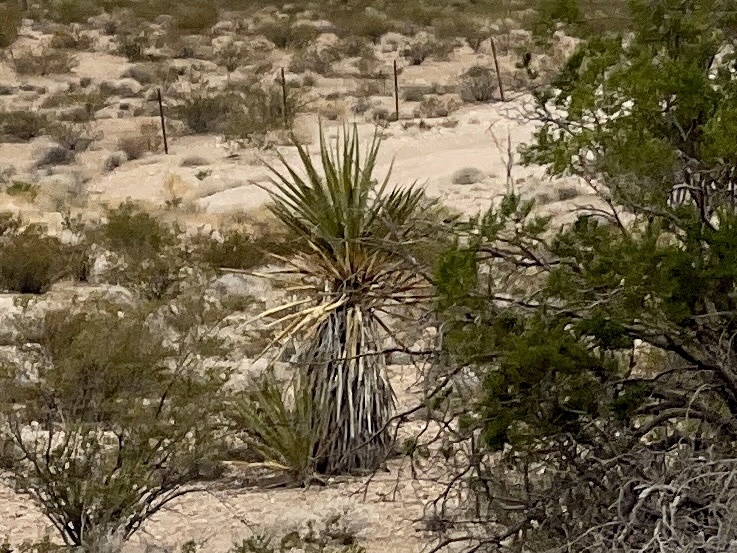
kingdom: Plantae
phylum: Tracheophyta
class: Liliopsida
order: Asparagales
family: Asparagaceae
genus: Yucca
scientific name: Yucca schidigera
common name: Mojave yucca
